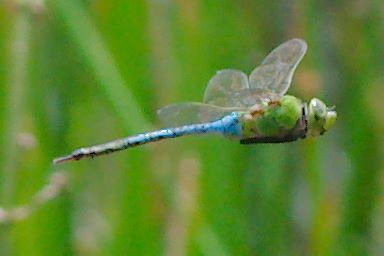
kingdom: Animalia
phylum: Arthropoda
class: Insecta
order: Odonata
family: Aeshnidae
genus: Anax
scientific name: Anax junius
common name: Common green darner
